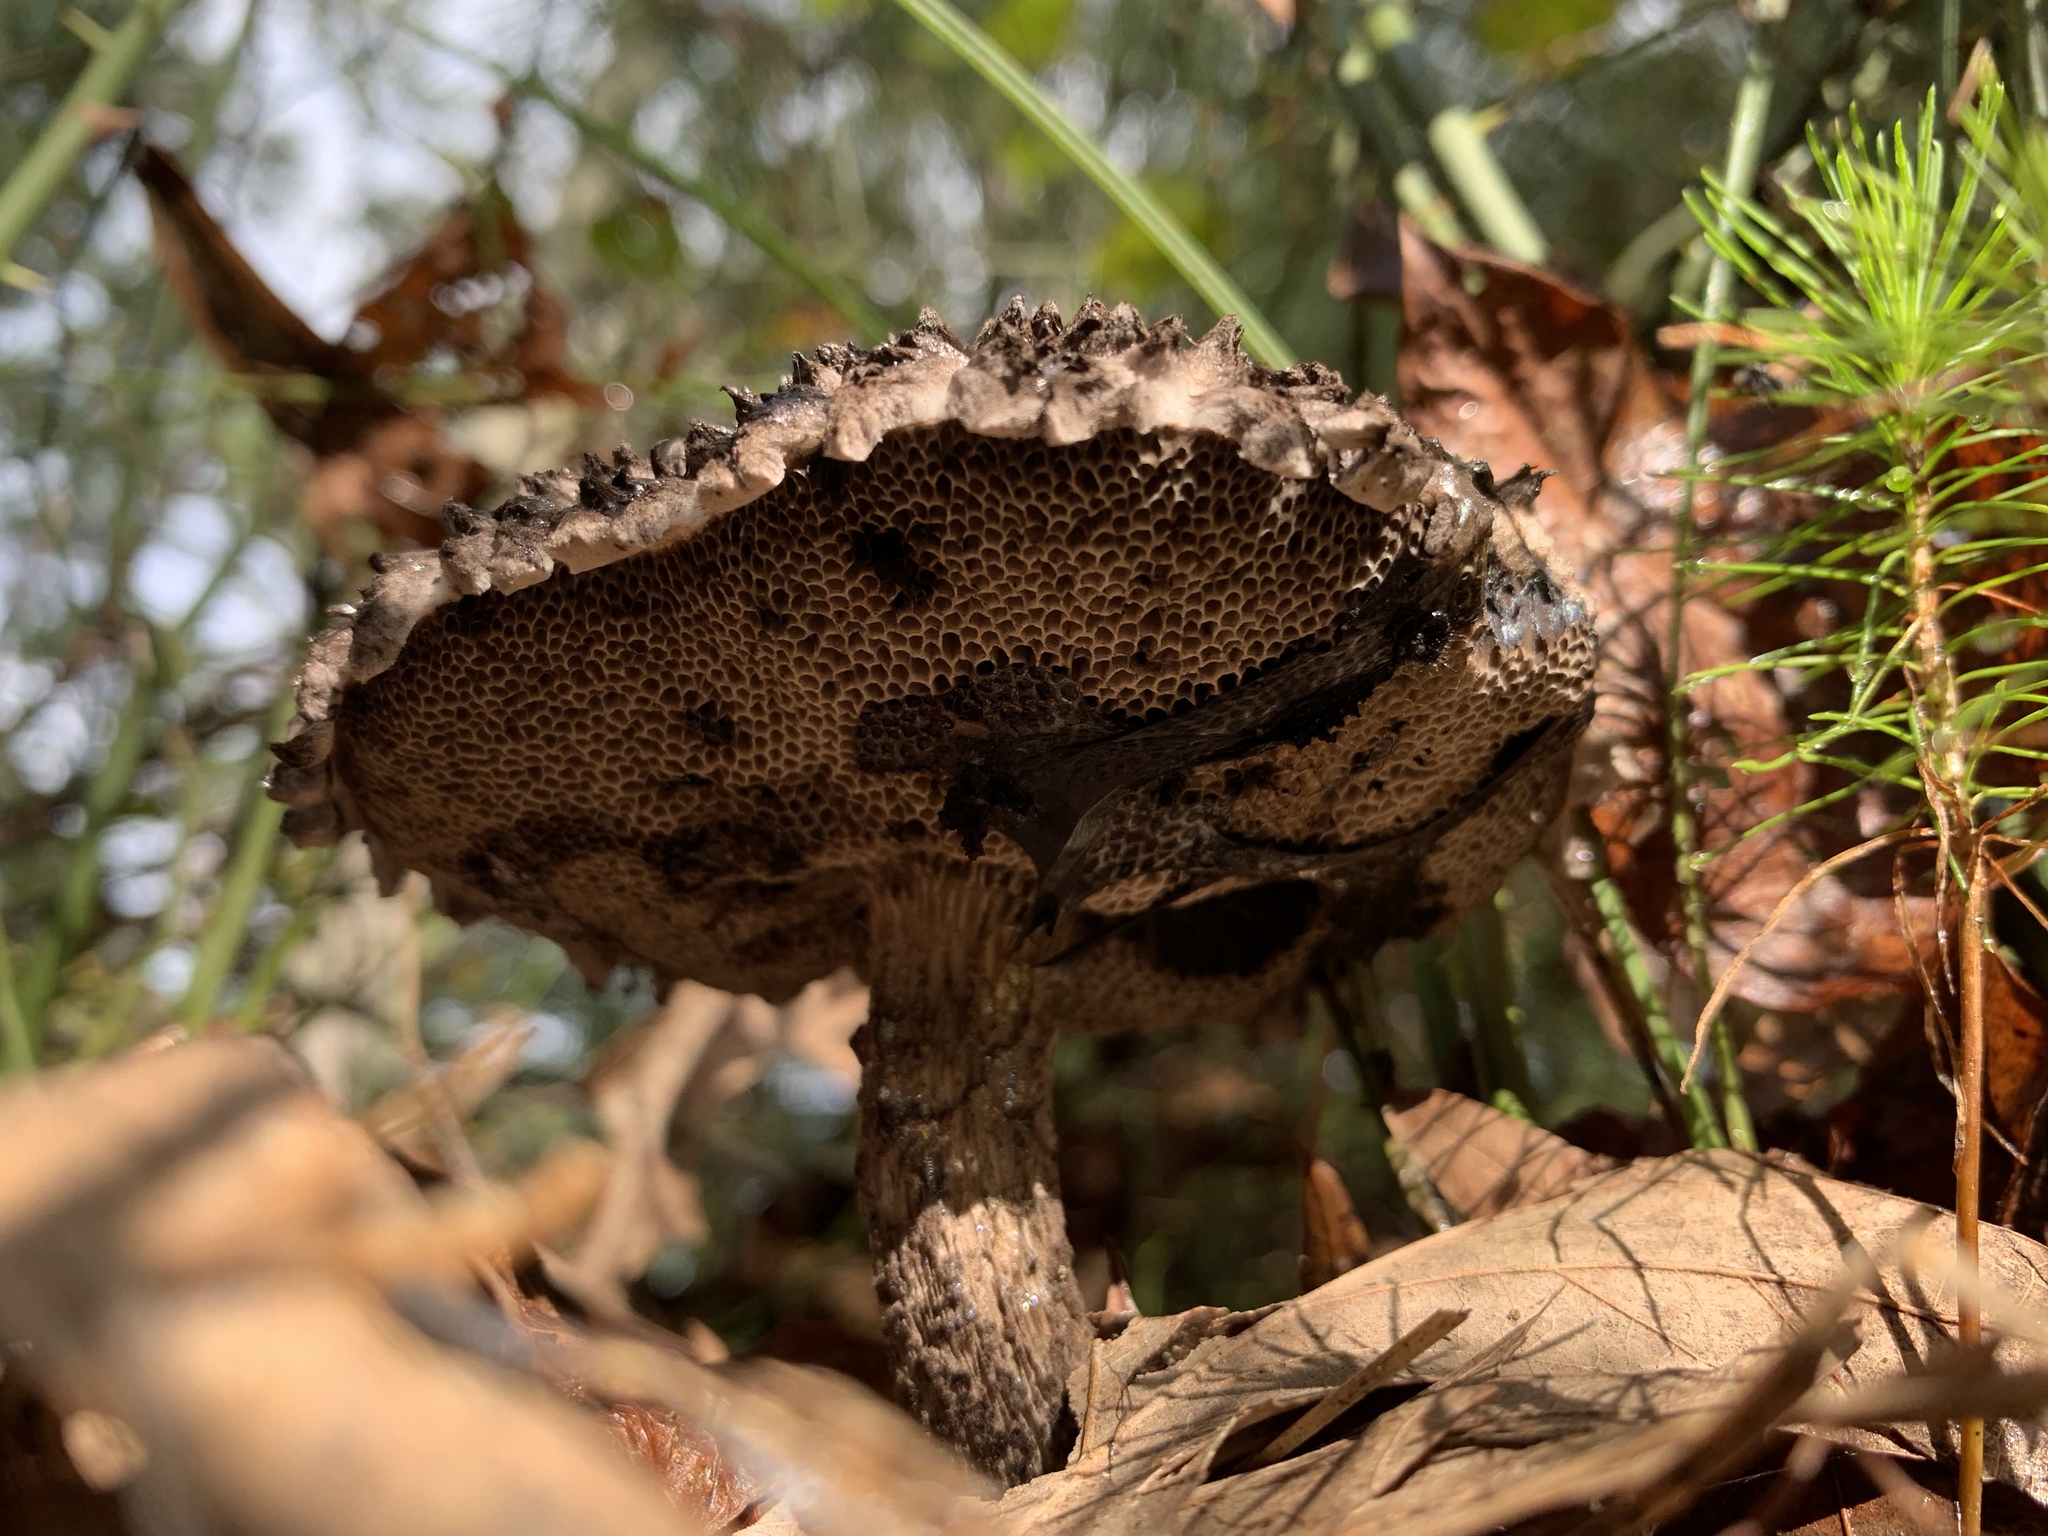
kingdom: Fungi
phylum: Basidiomycota
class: Agaricomycetes
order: Boletales
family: Boletaceae
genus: Strobilomyces
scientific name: Strobilomyces strobilaceus
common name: Old man of the woods
